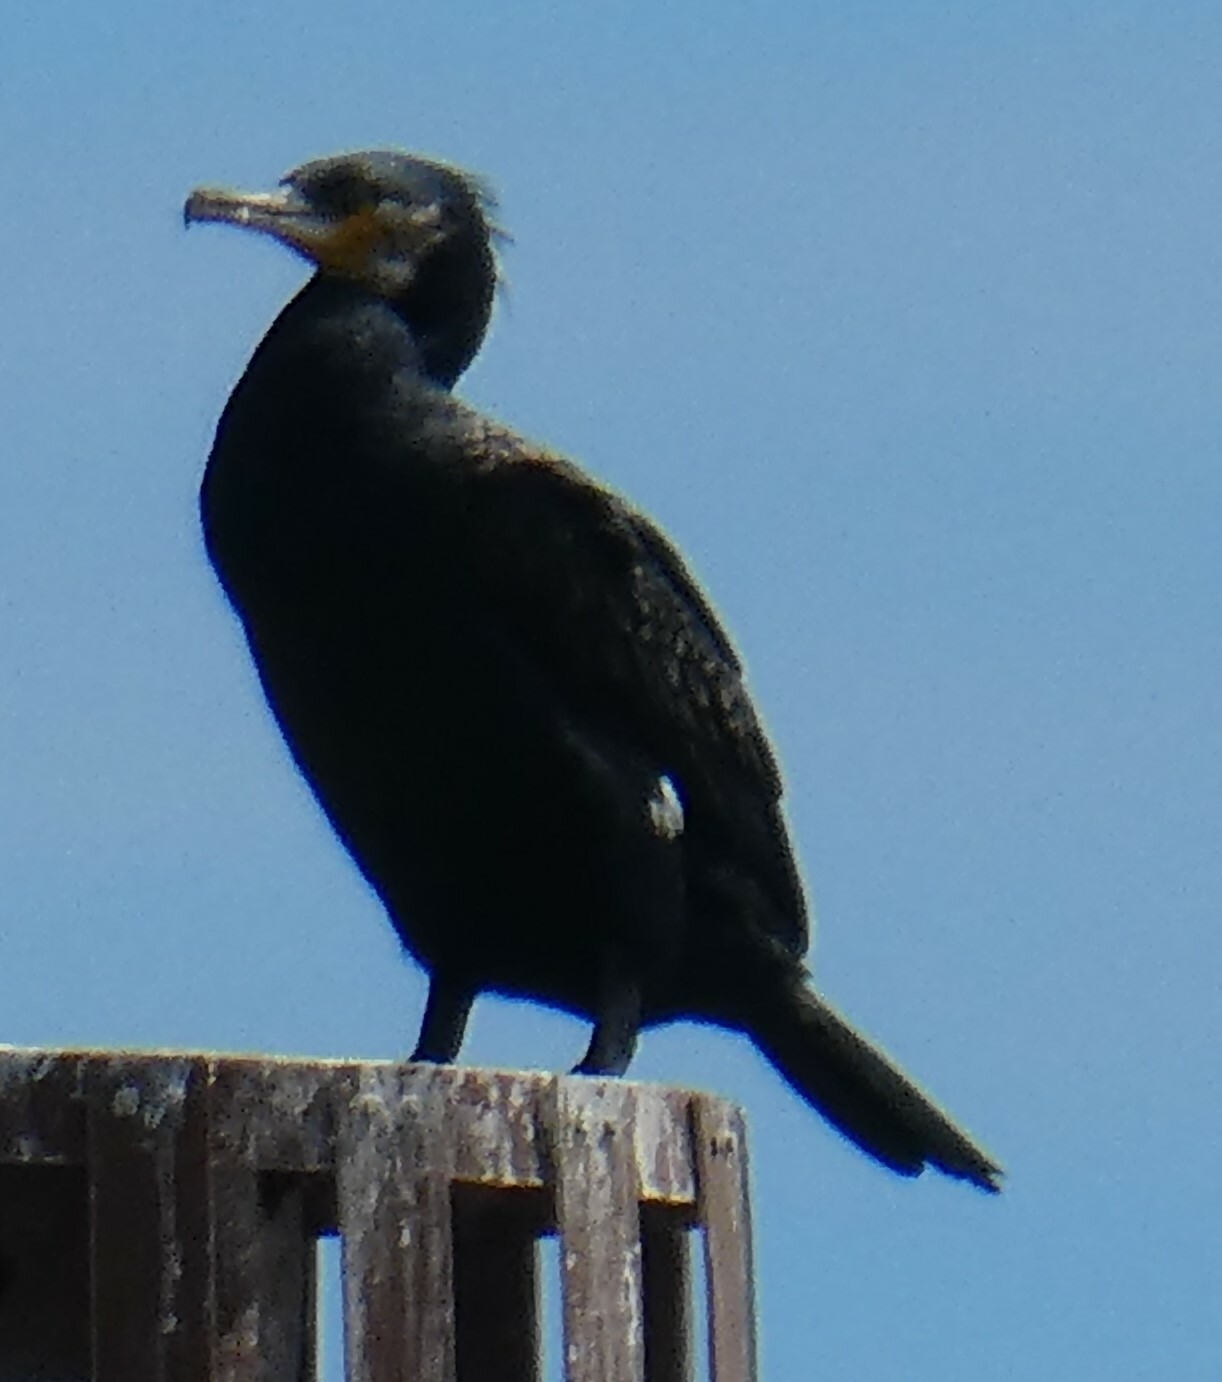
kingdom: Animalia
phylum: Chordata
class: Aves
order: Suliformes
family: Phalacrocoracidae
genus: Phalacrocorax
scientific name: Phalacrocorax carbo
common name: Great cormorant
